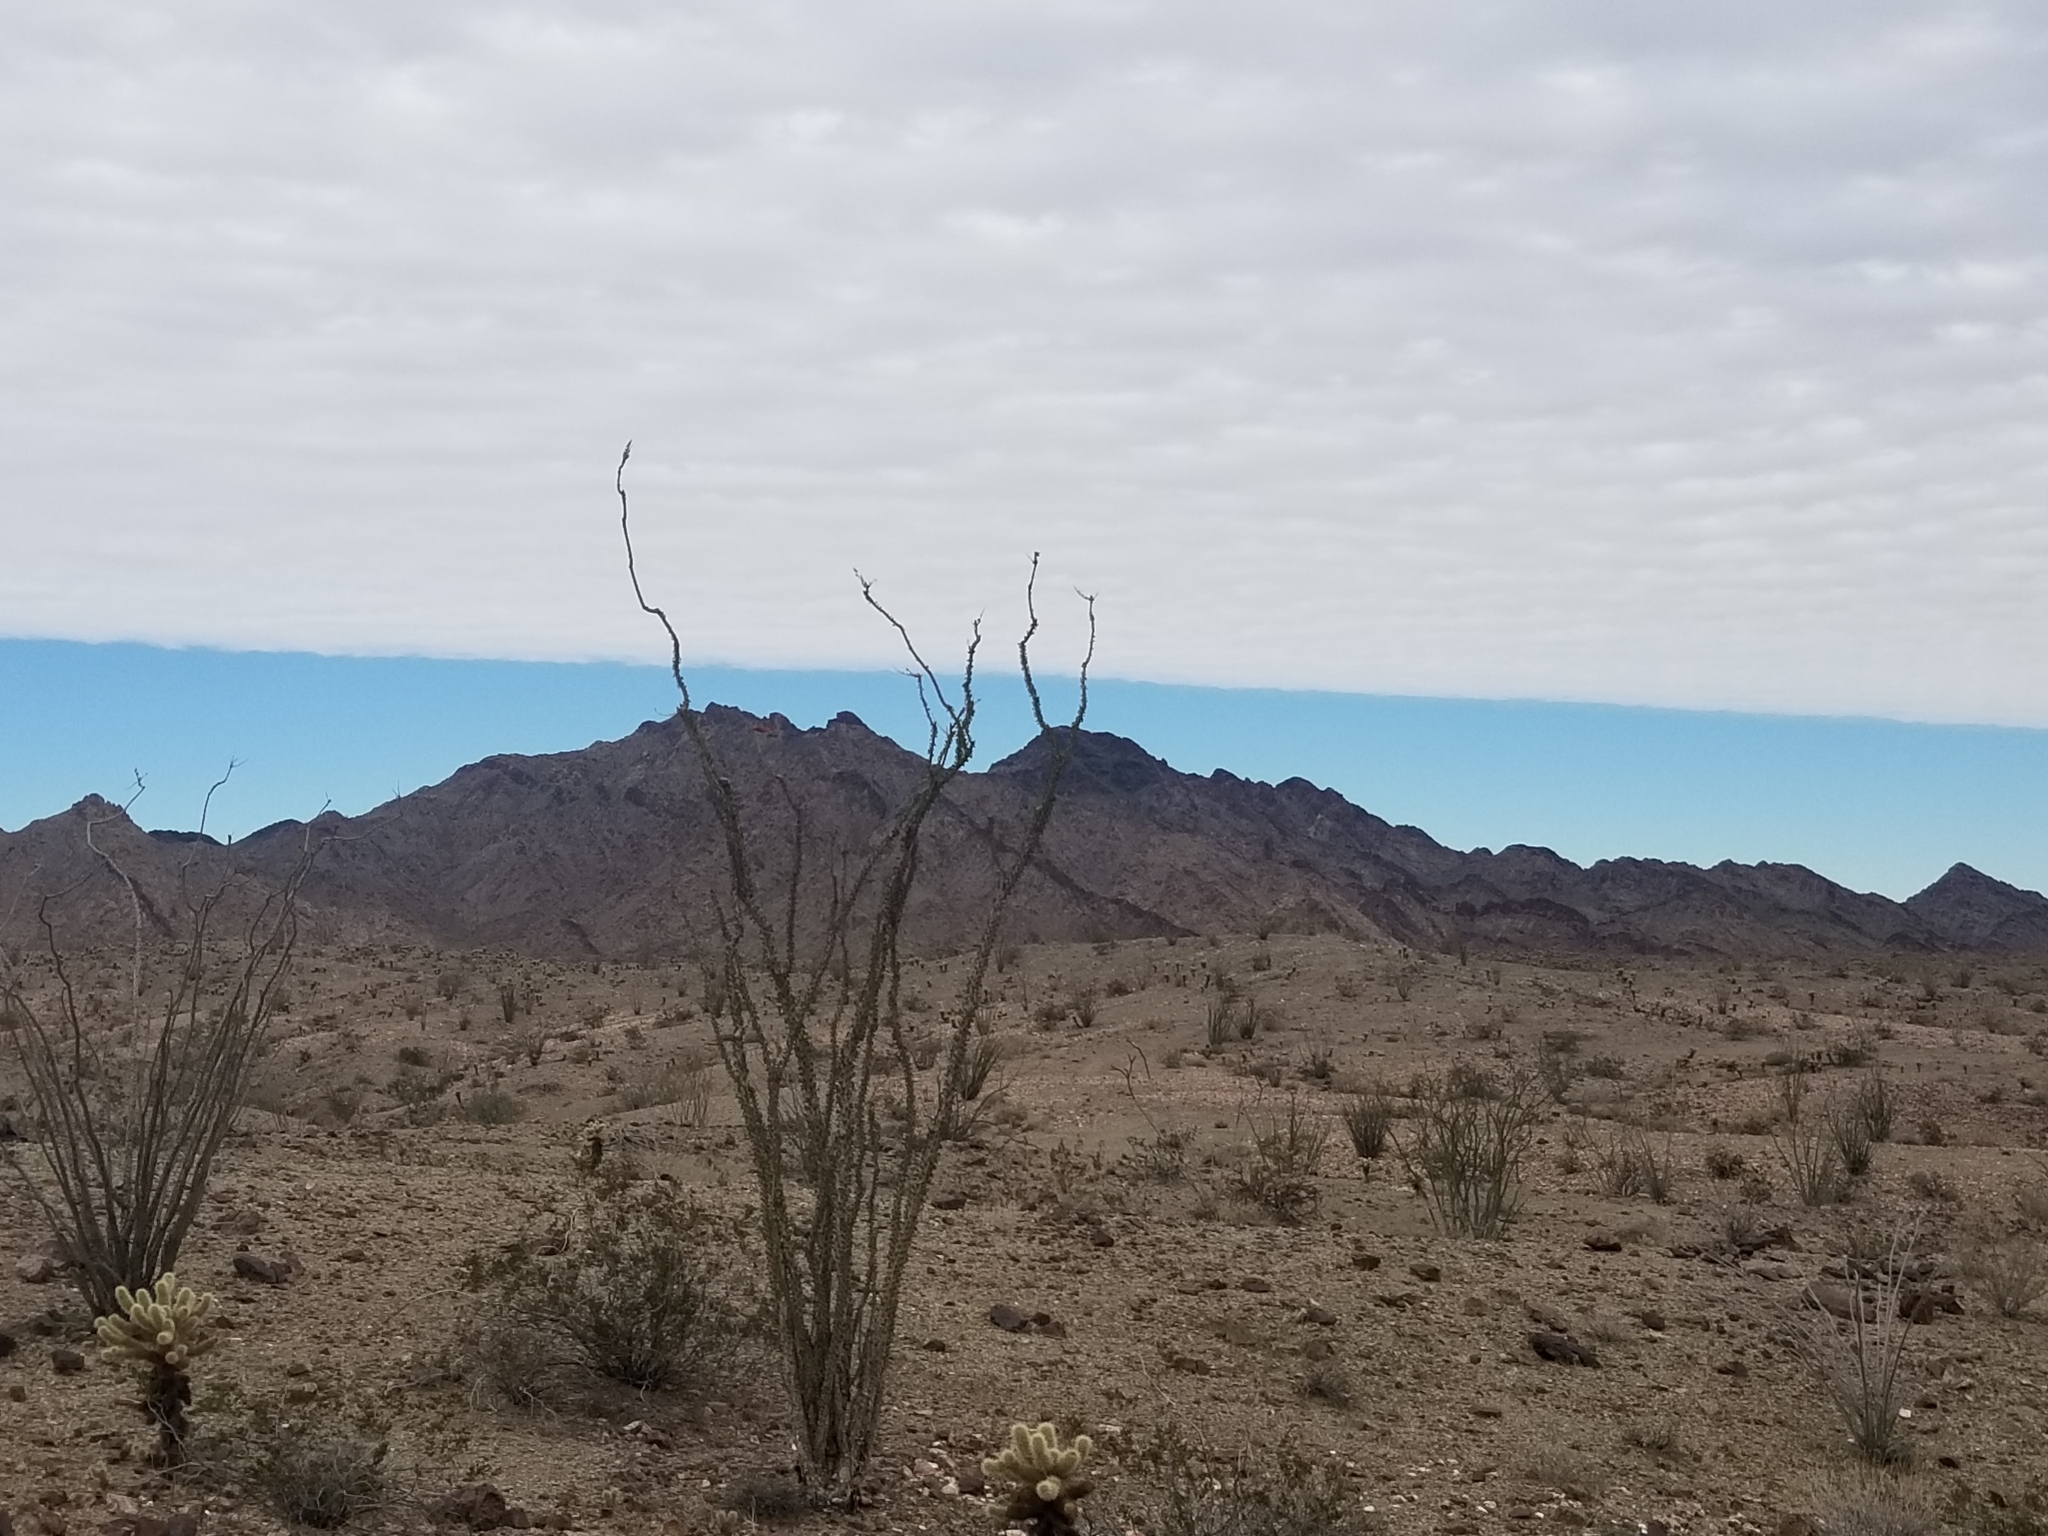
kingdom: Plantae
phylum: Tracheophyta
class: Magnoliopsida
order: Ericales
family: Fouquieriaceae
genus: Fouquieria
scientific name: Fouquieria splendens
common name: Vine-cactus
